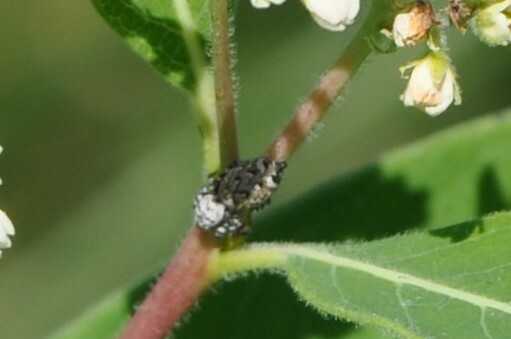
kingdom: Animalia
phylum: Arthropoda
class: Arachnida
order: Araneae
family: Salticidae
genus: Pelegrina
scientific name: Pelegrina galathea
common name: Jumping spiders
